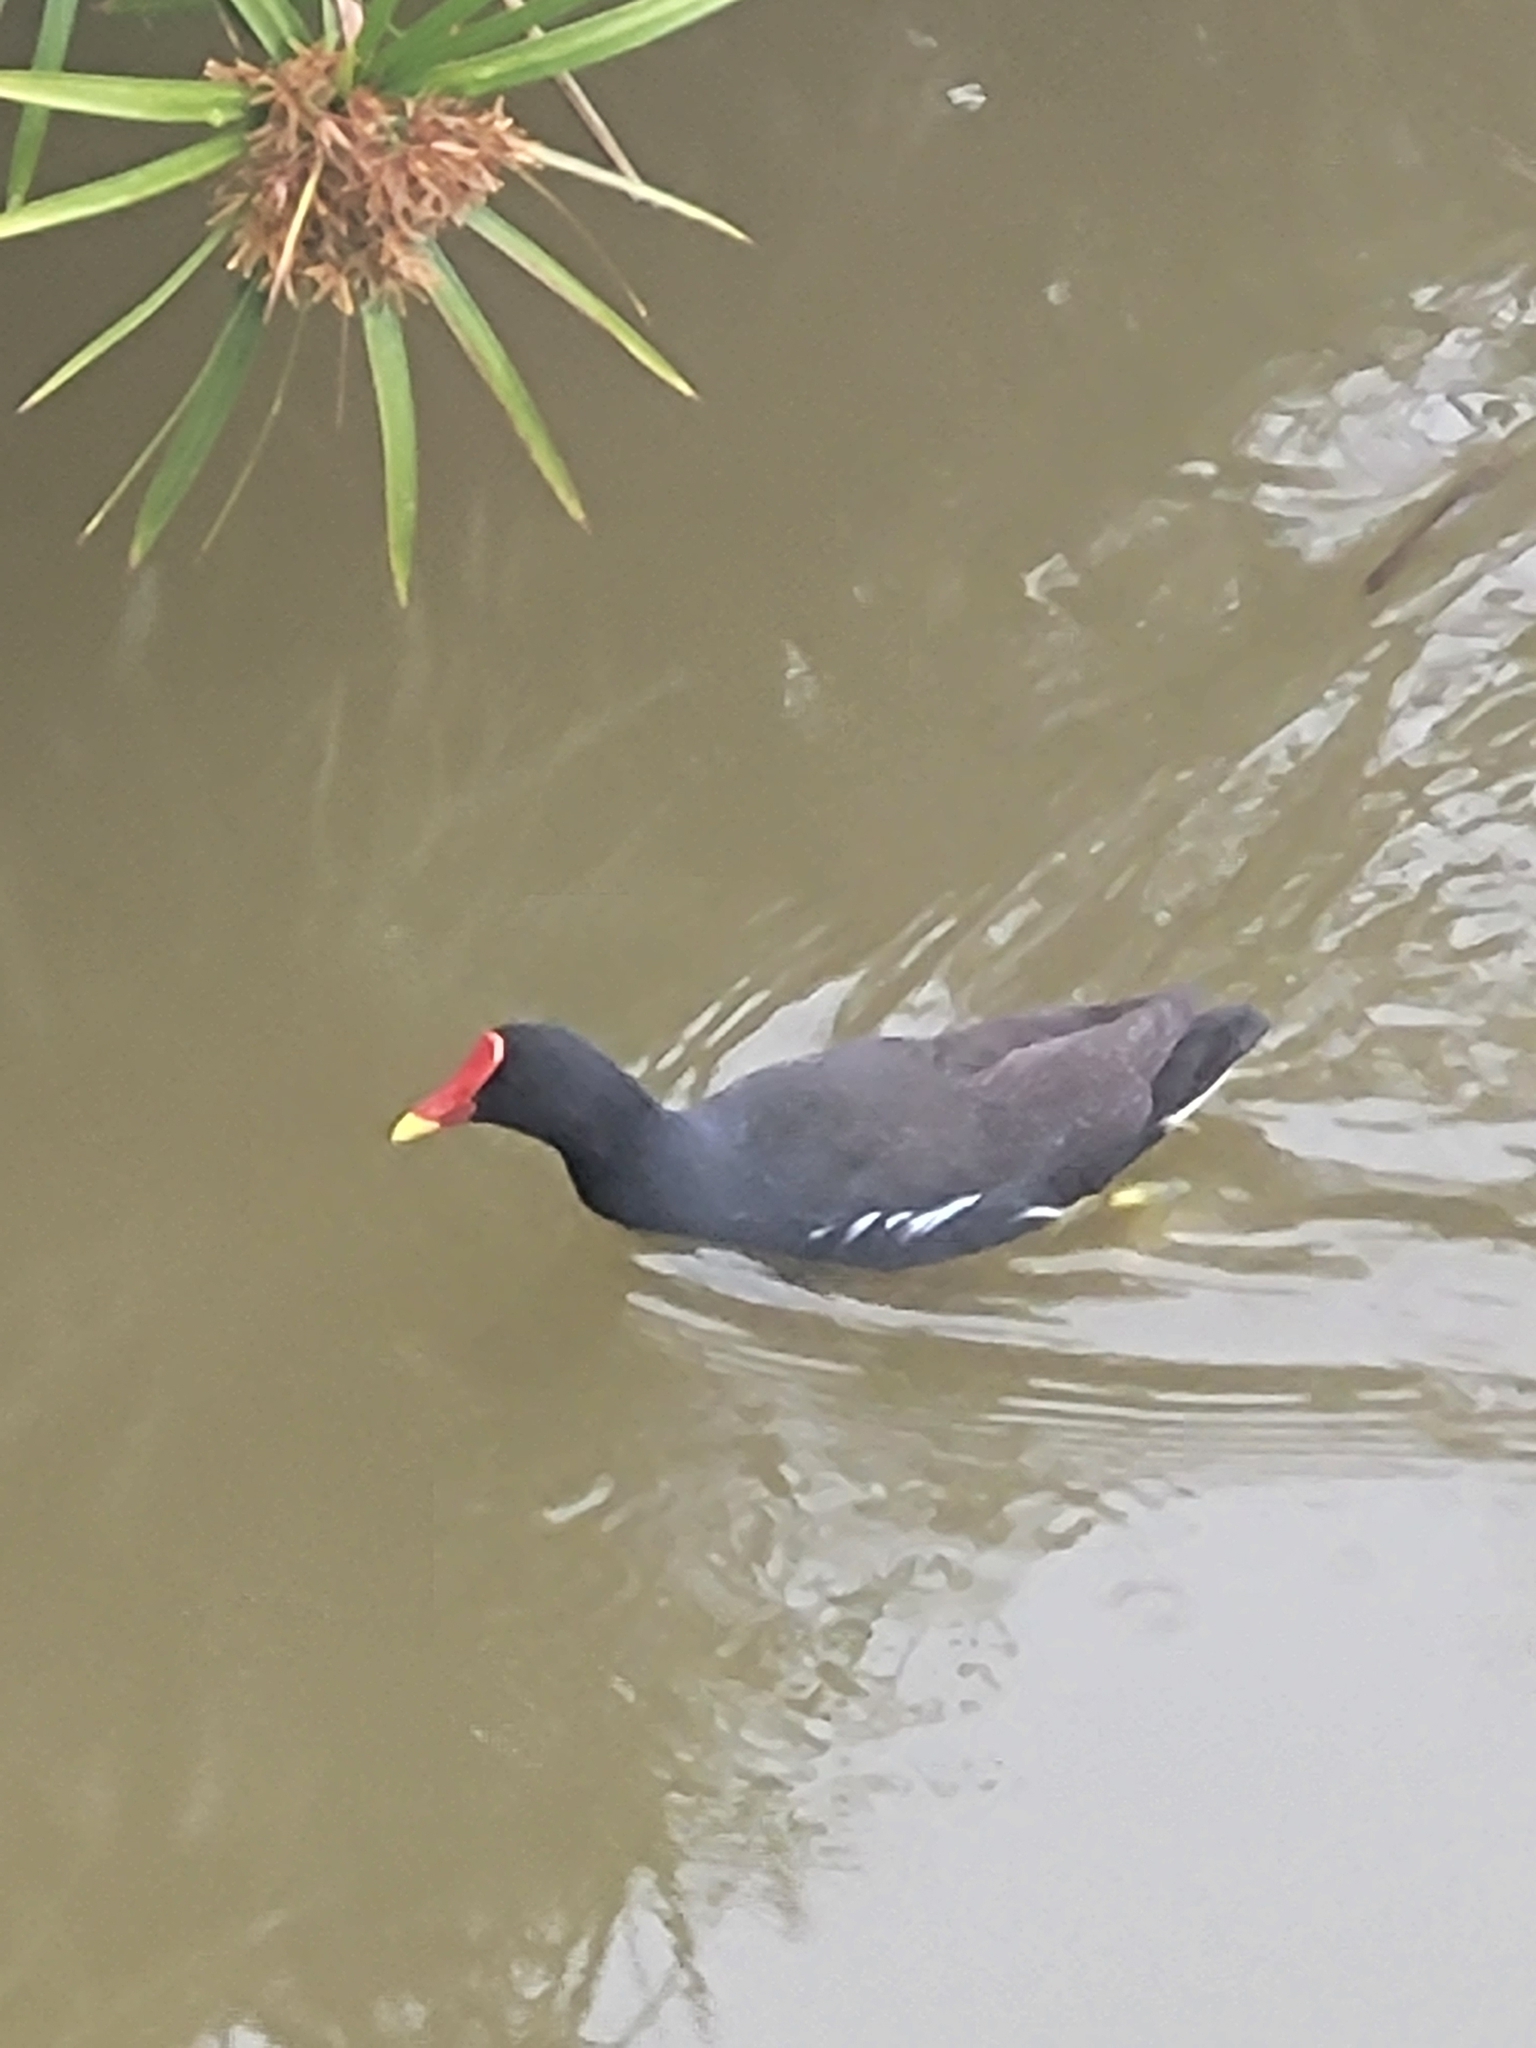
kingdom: Animalia
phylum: Chordata
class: Aves
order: Gruiformes
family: Rallidae
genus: Gallinula
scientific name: Gallinula chloropus
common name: Common moorhen
